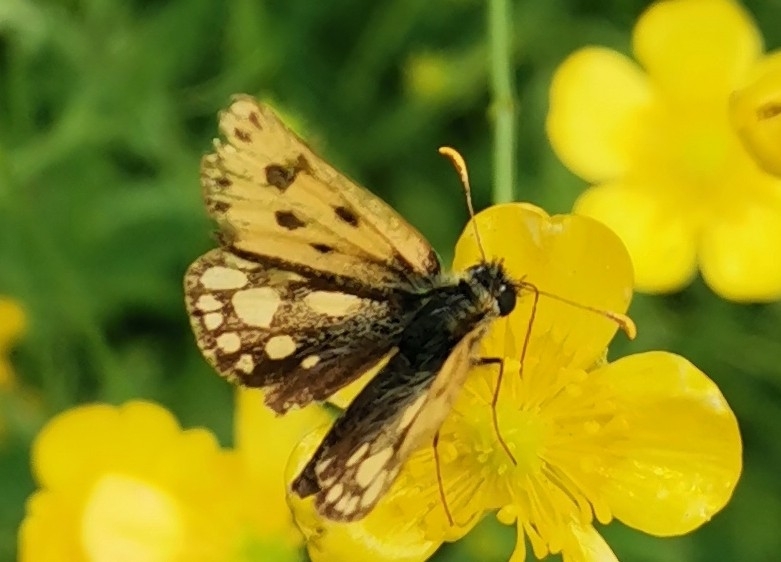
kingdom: Animalia
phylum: Arthropoda
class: Insecta
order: Lepidoptera
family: Hesperiidae
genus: Carterocephalus
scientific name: Carterocephalus silvicola
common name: Northern chequered skipper
